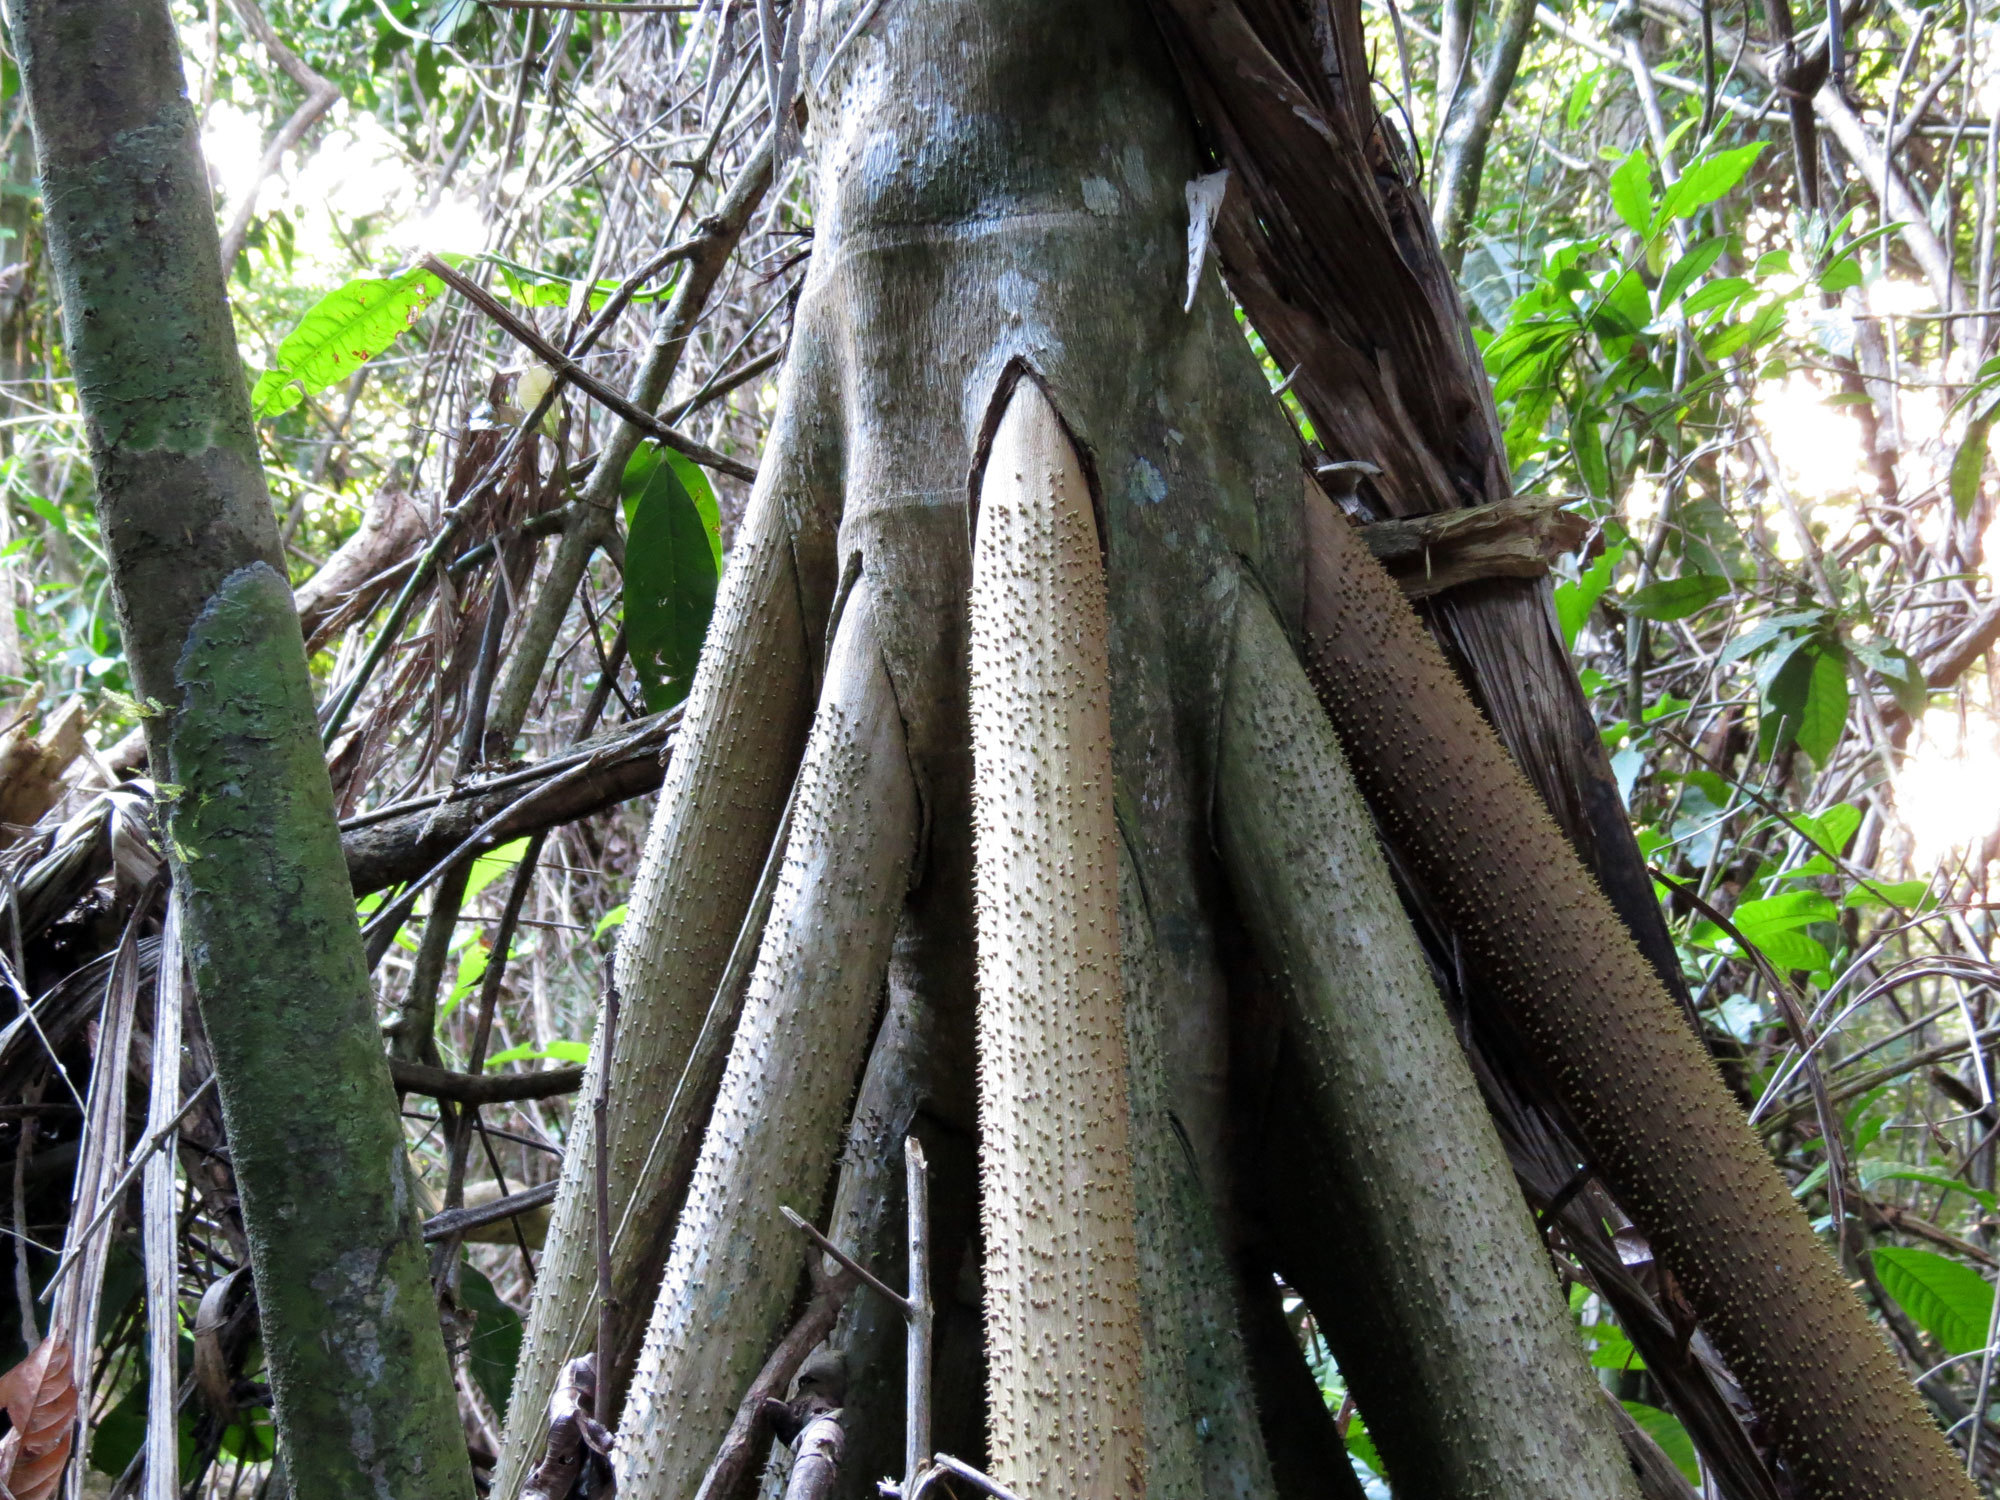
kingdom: Plantae
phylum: Tracheophyta
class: Liliopsida
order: Arecales
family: Arecaceae
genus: Socratea
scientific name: Socratea exorrhiza
